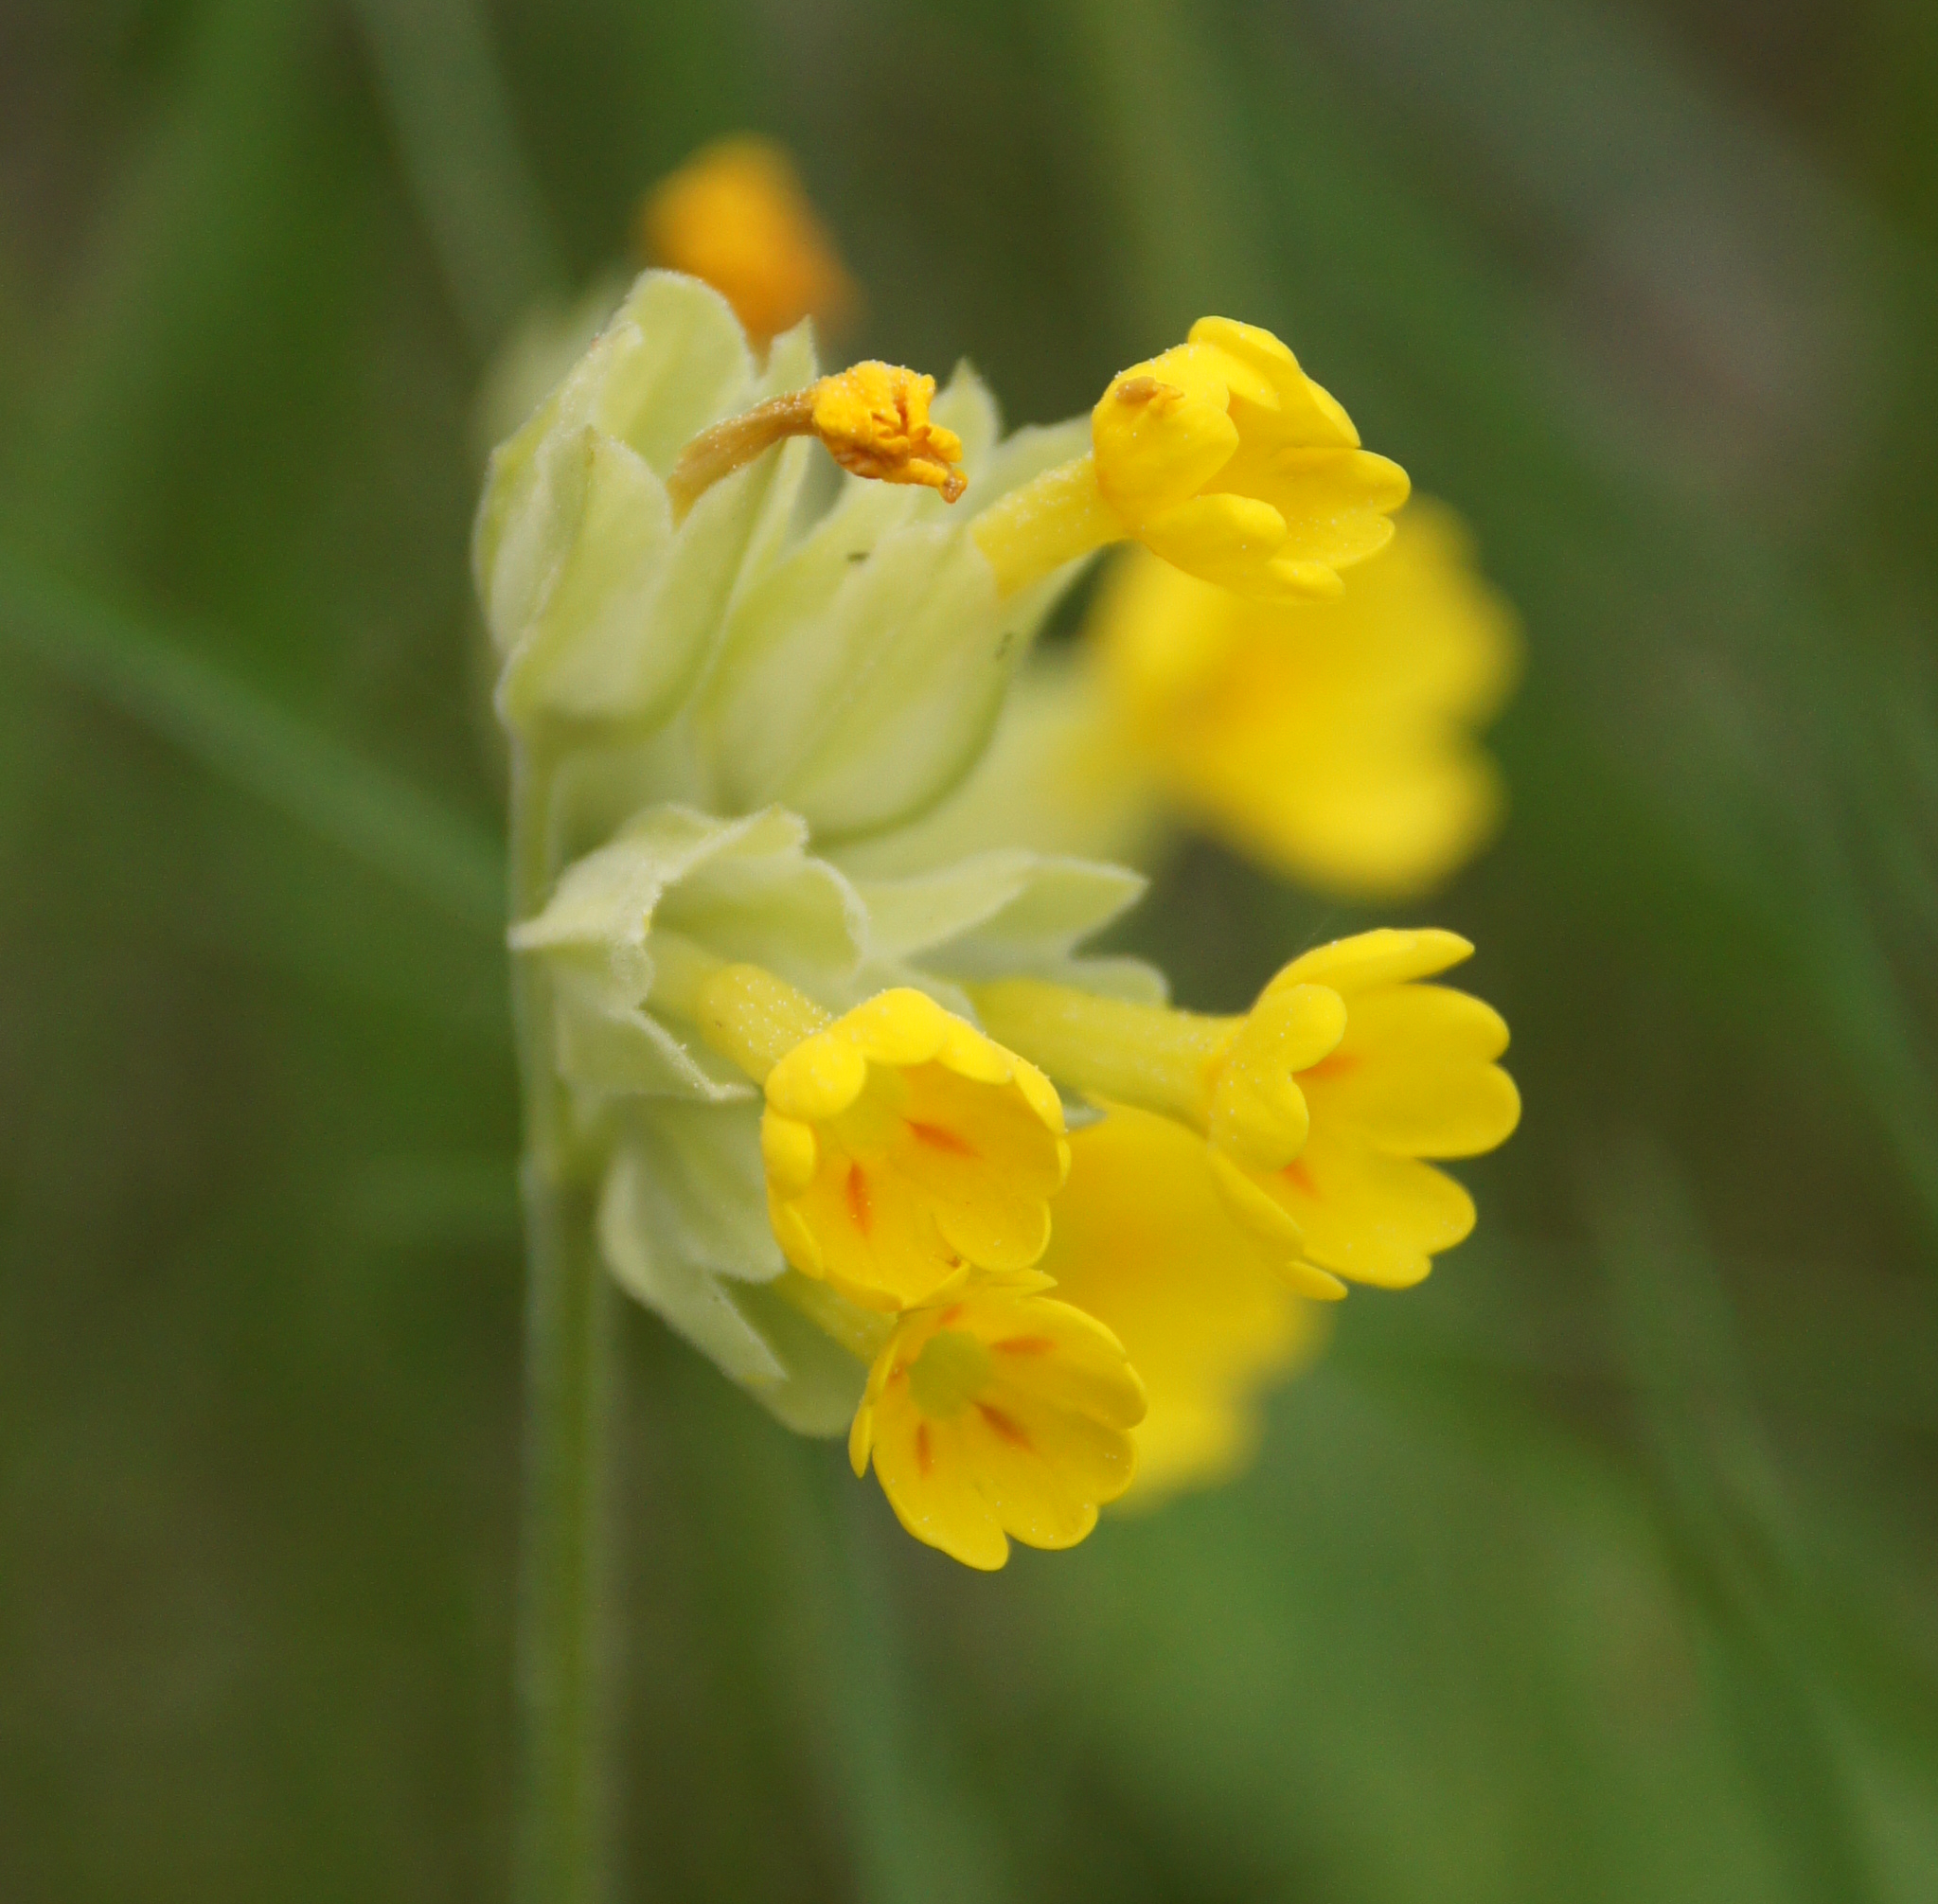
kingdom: Plantae
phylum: Tracheophyta
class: Magnoliopsida
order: Ericales
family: Primulaceae
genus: Primula
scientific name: Primula veris
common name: Cowslip
